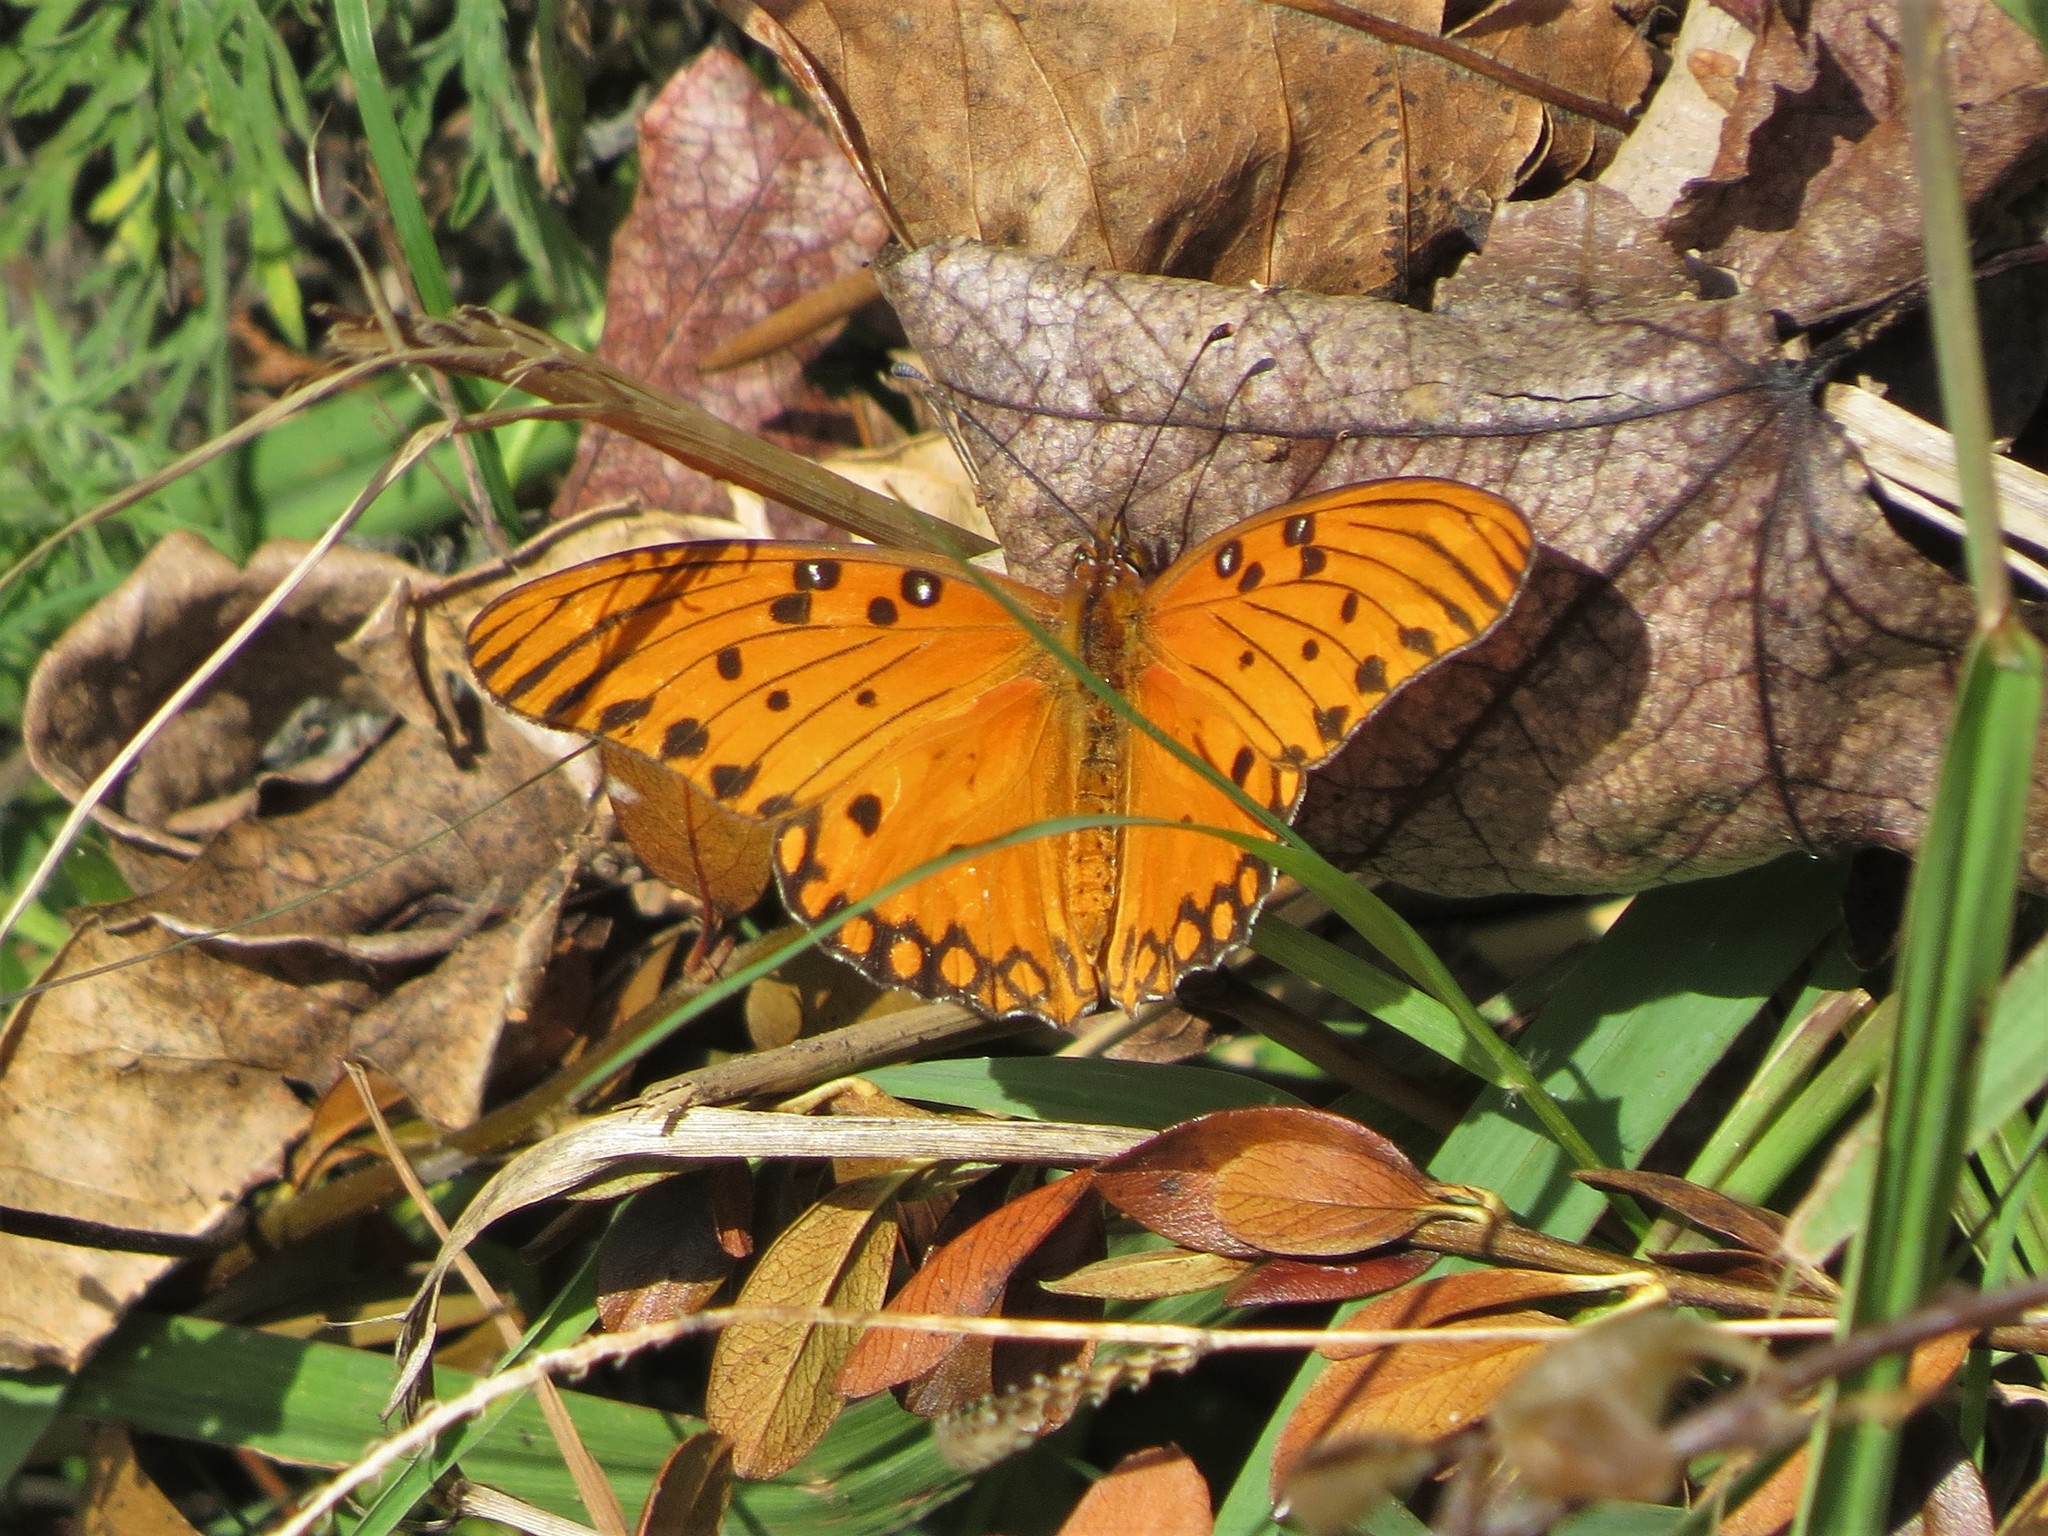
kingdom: Animalia
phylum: Arthropoda
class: Insecta
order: Lepidoptera
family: Nymphalidae
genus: Dione
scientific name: Dione vanillae
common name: Gulf fritillary
